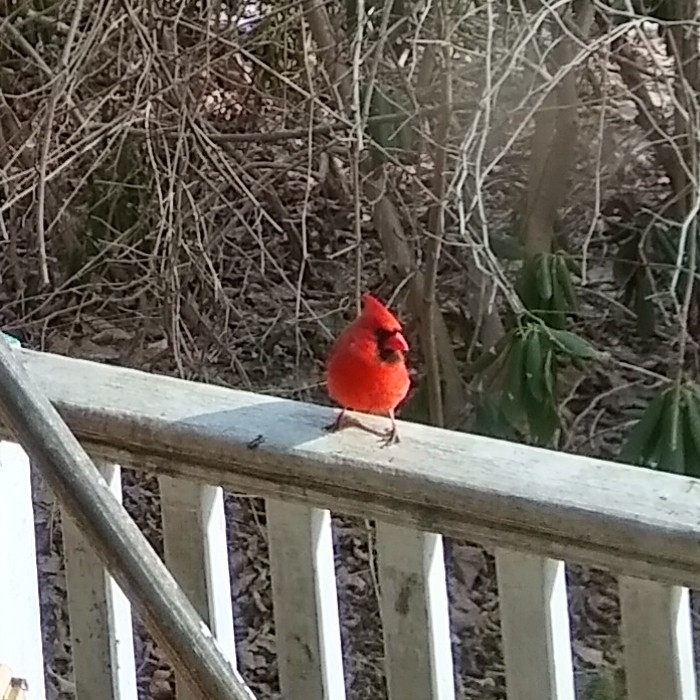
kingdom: Animalia
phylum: Chordata
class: Aves
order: Passeriformes
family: Cardinalidae
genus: Cardinalis
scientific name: Cardinalis cardinalis
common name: Northern cardinal
